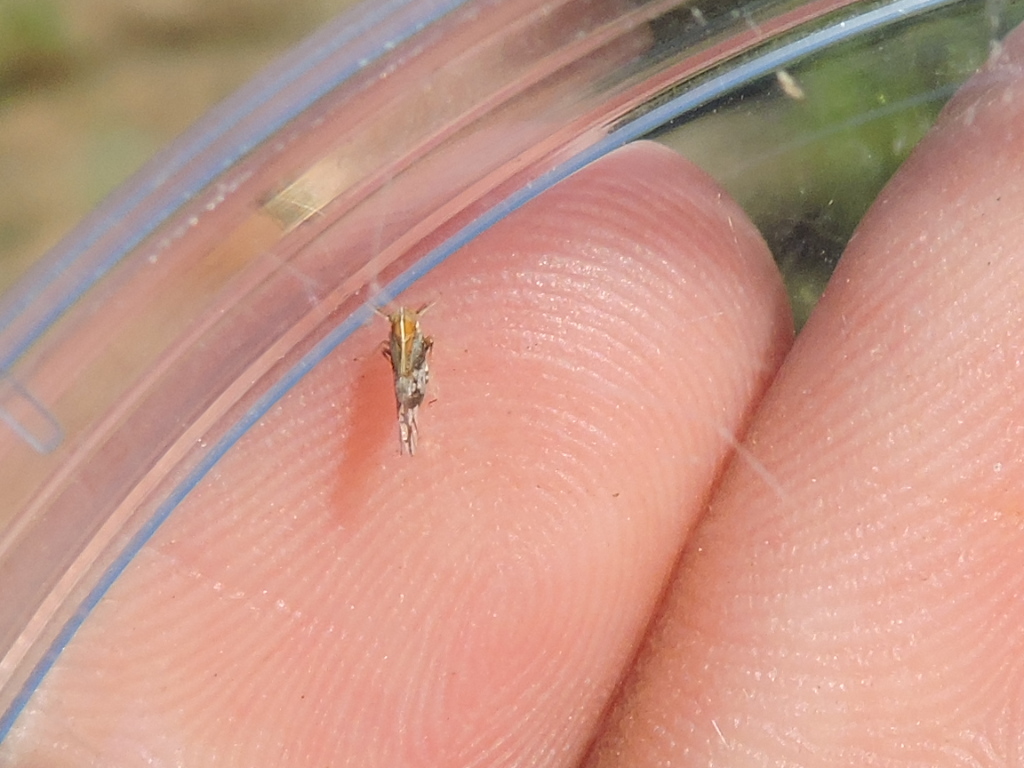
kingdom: Animalia
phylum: Arthropoda
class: Insecta
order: Hemiptera
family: Delphacidae
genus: Liburniella
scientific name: Liburniella ornata
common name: Ornate planthopper
